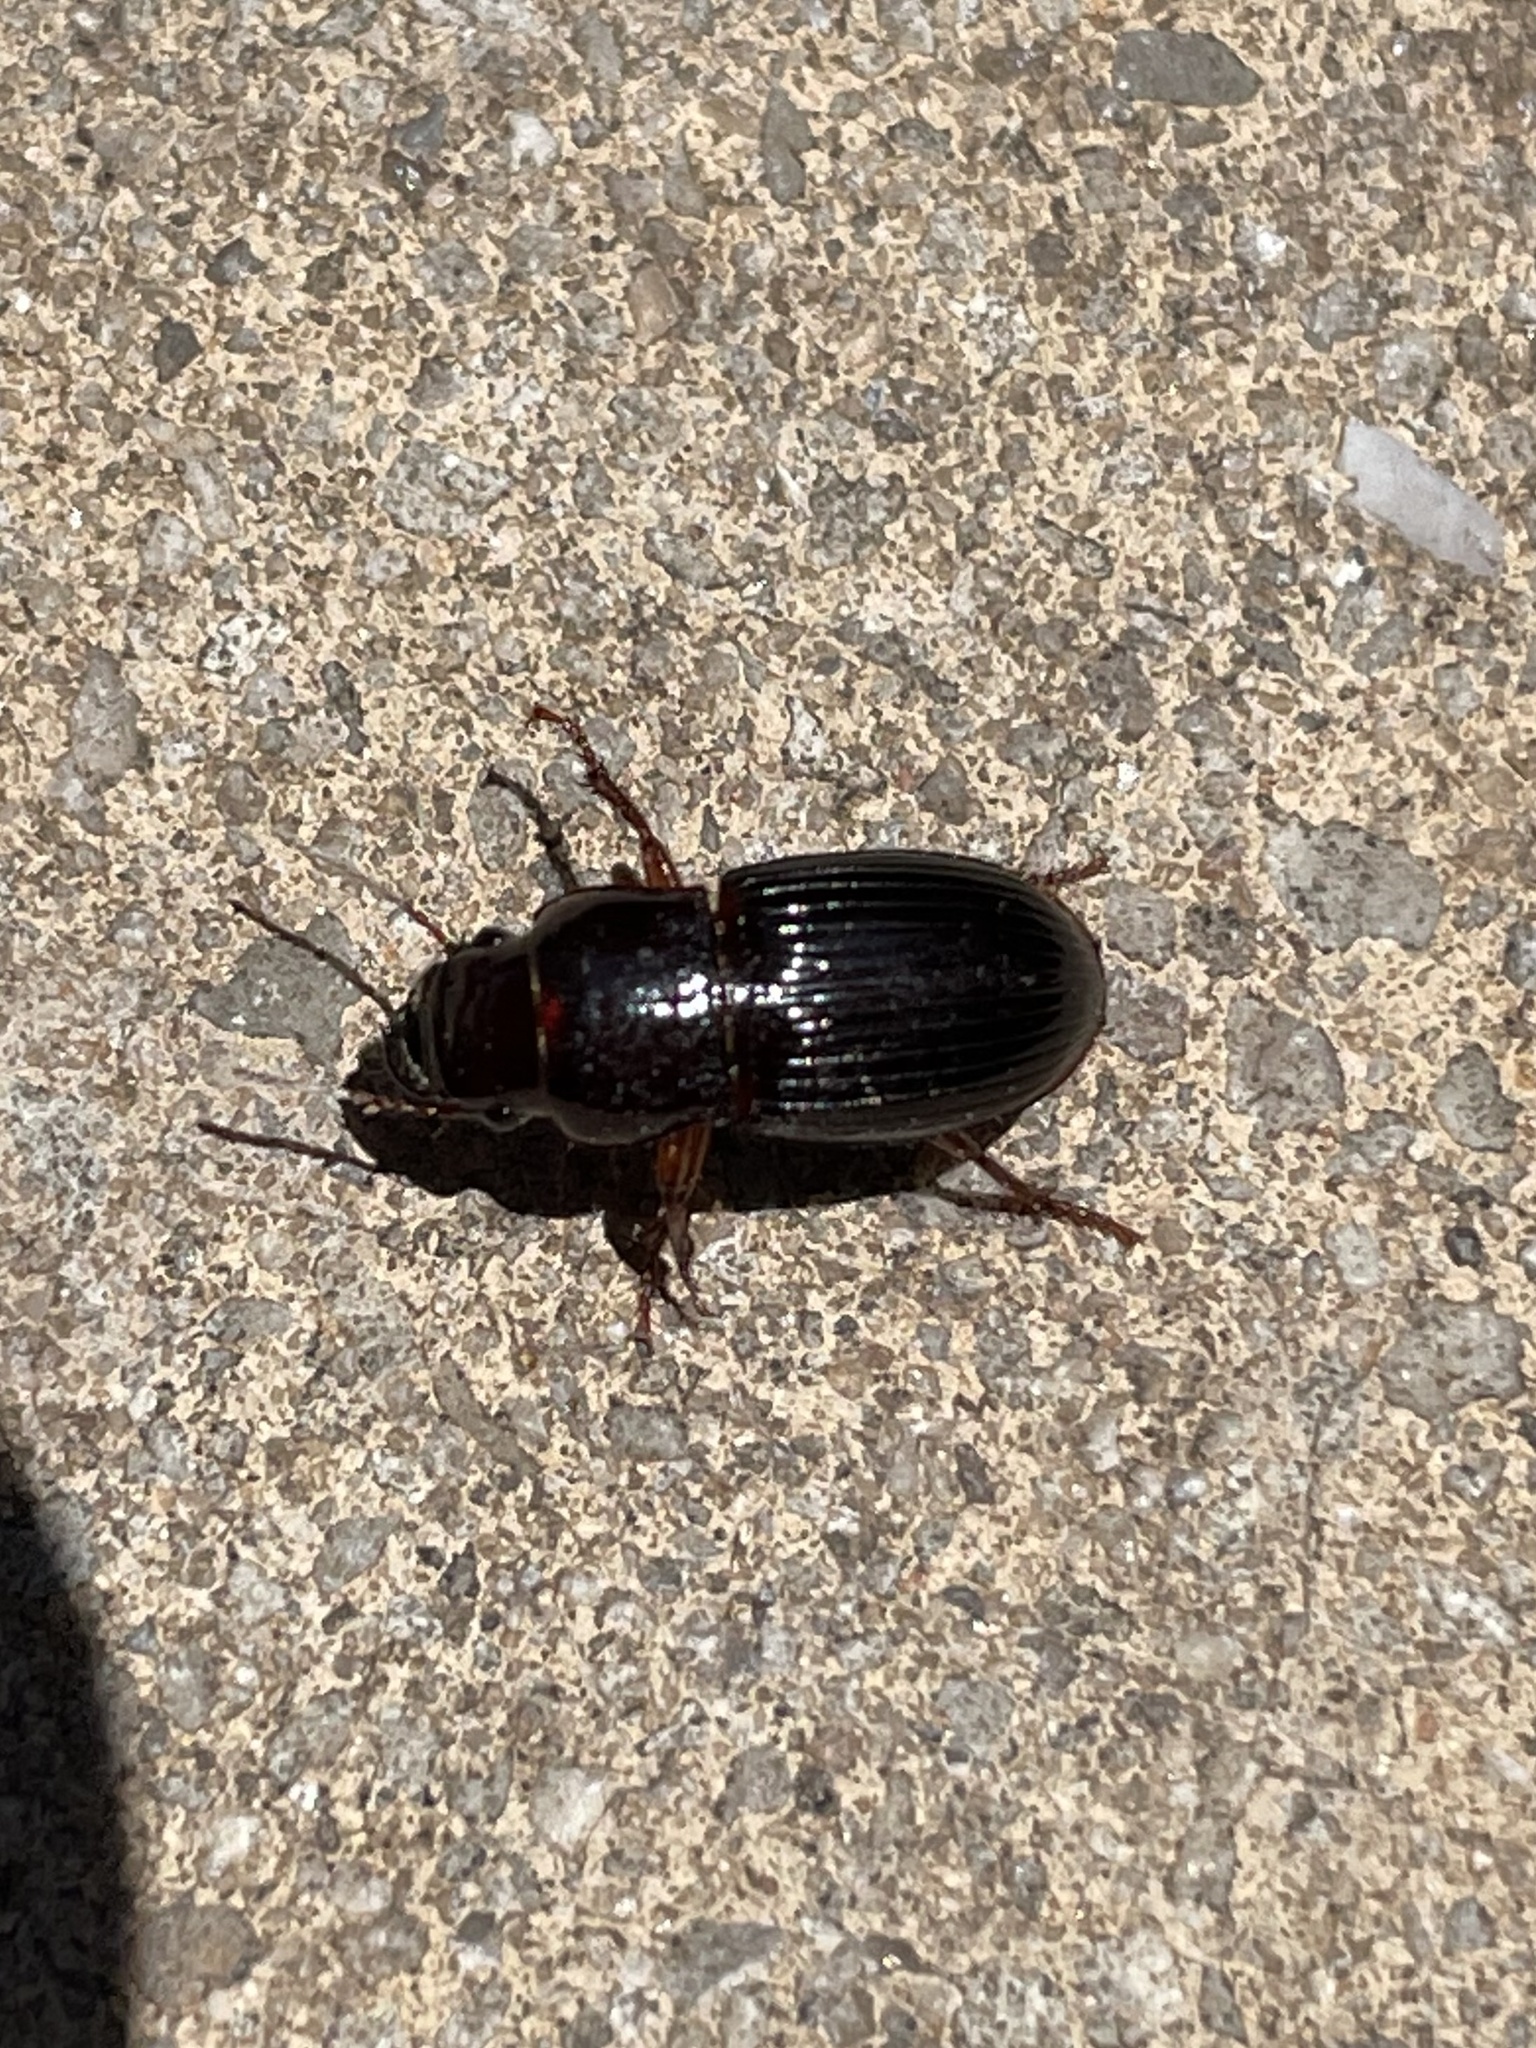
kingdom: Animalia
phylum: Arthropoda
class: Insecta
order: Coleoptera
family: Carabidae
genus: Cratacanthus
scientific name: Cratacanthus dubius
